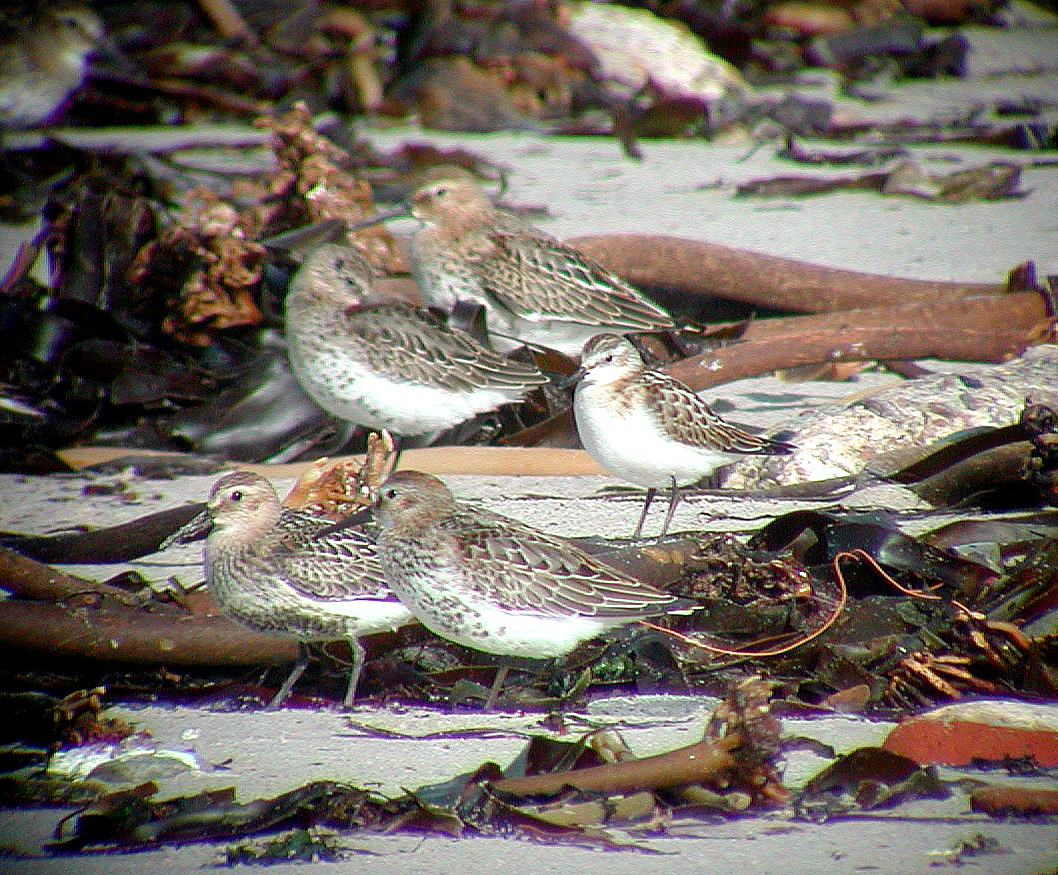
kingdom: Animalia
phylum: Chordata
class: Aves
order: Charadriiformes
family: Scolopacidae
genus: Calidris
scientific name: Calidris minuta
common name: Little stint
